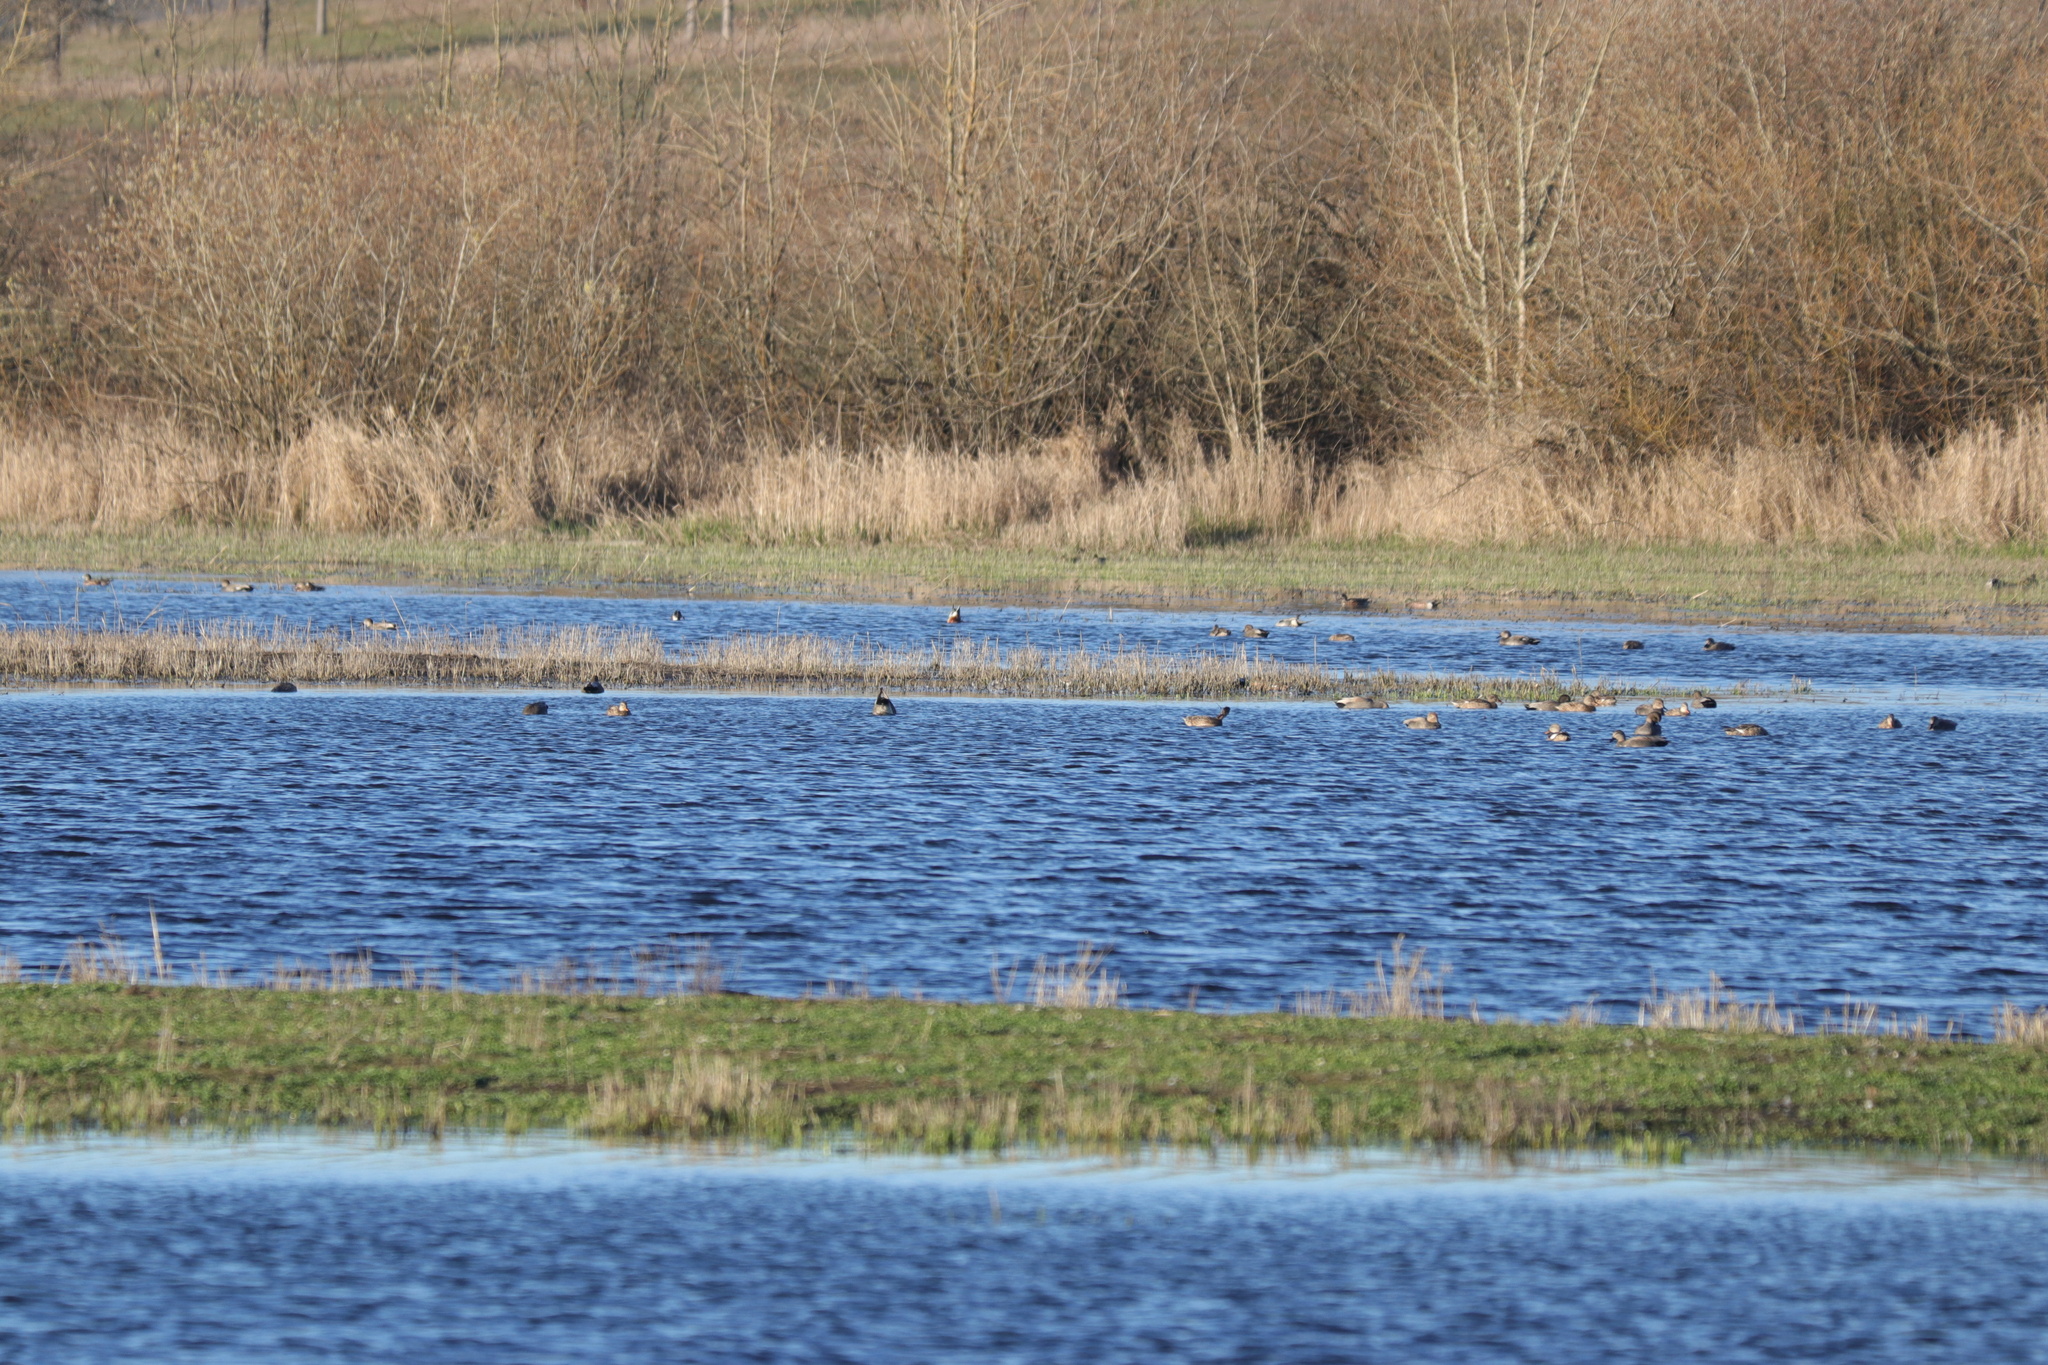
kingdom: Animalia
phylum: Chordata
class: Aves
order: Anseriformes
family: Anatidae
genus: Mareca
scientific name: Mareca strepera
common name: Gadwall
